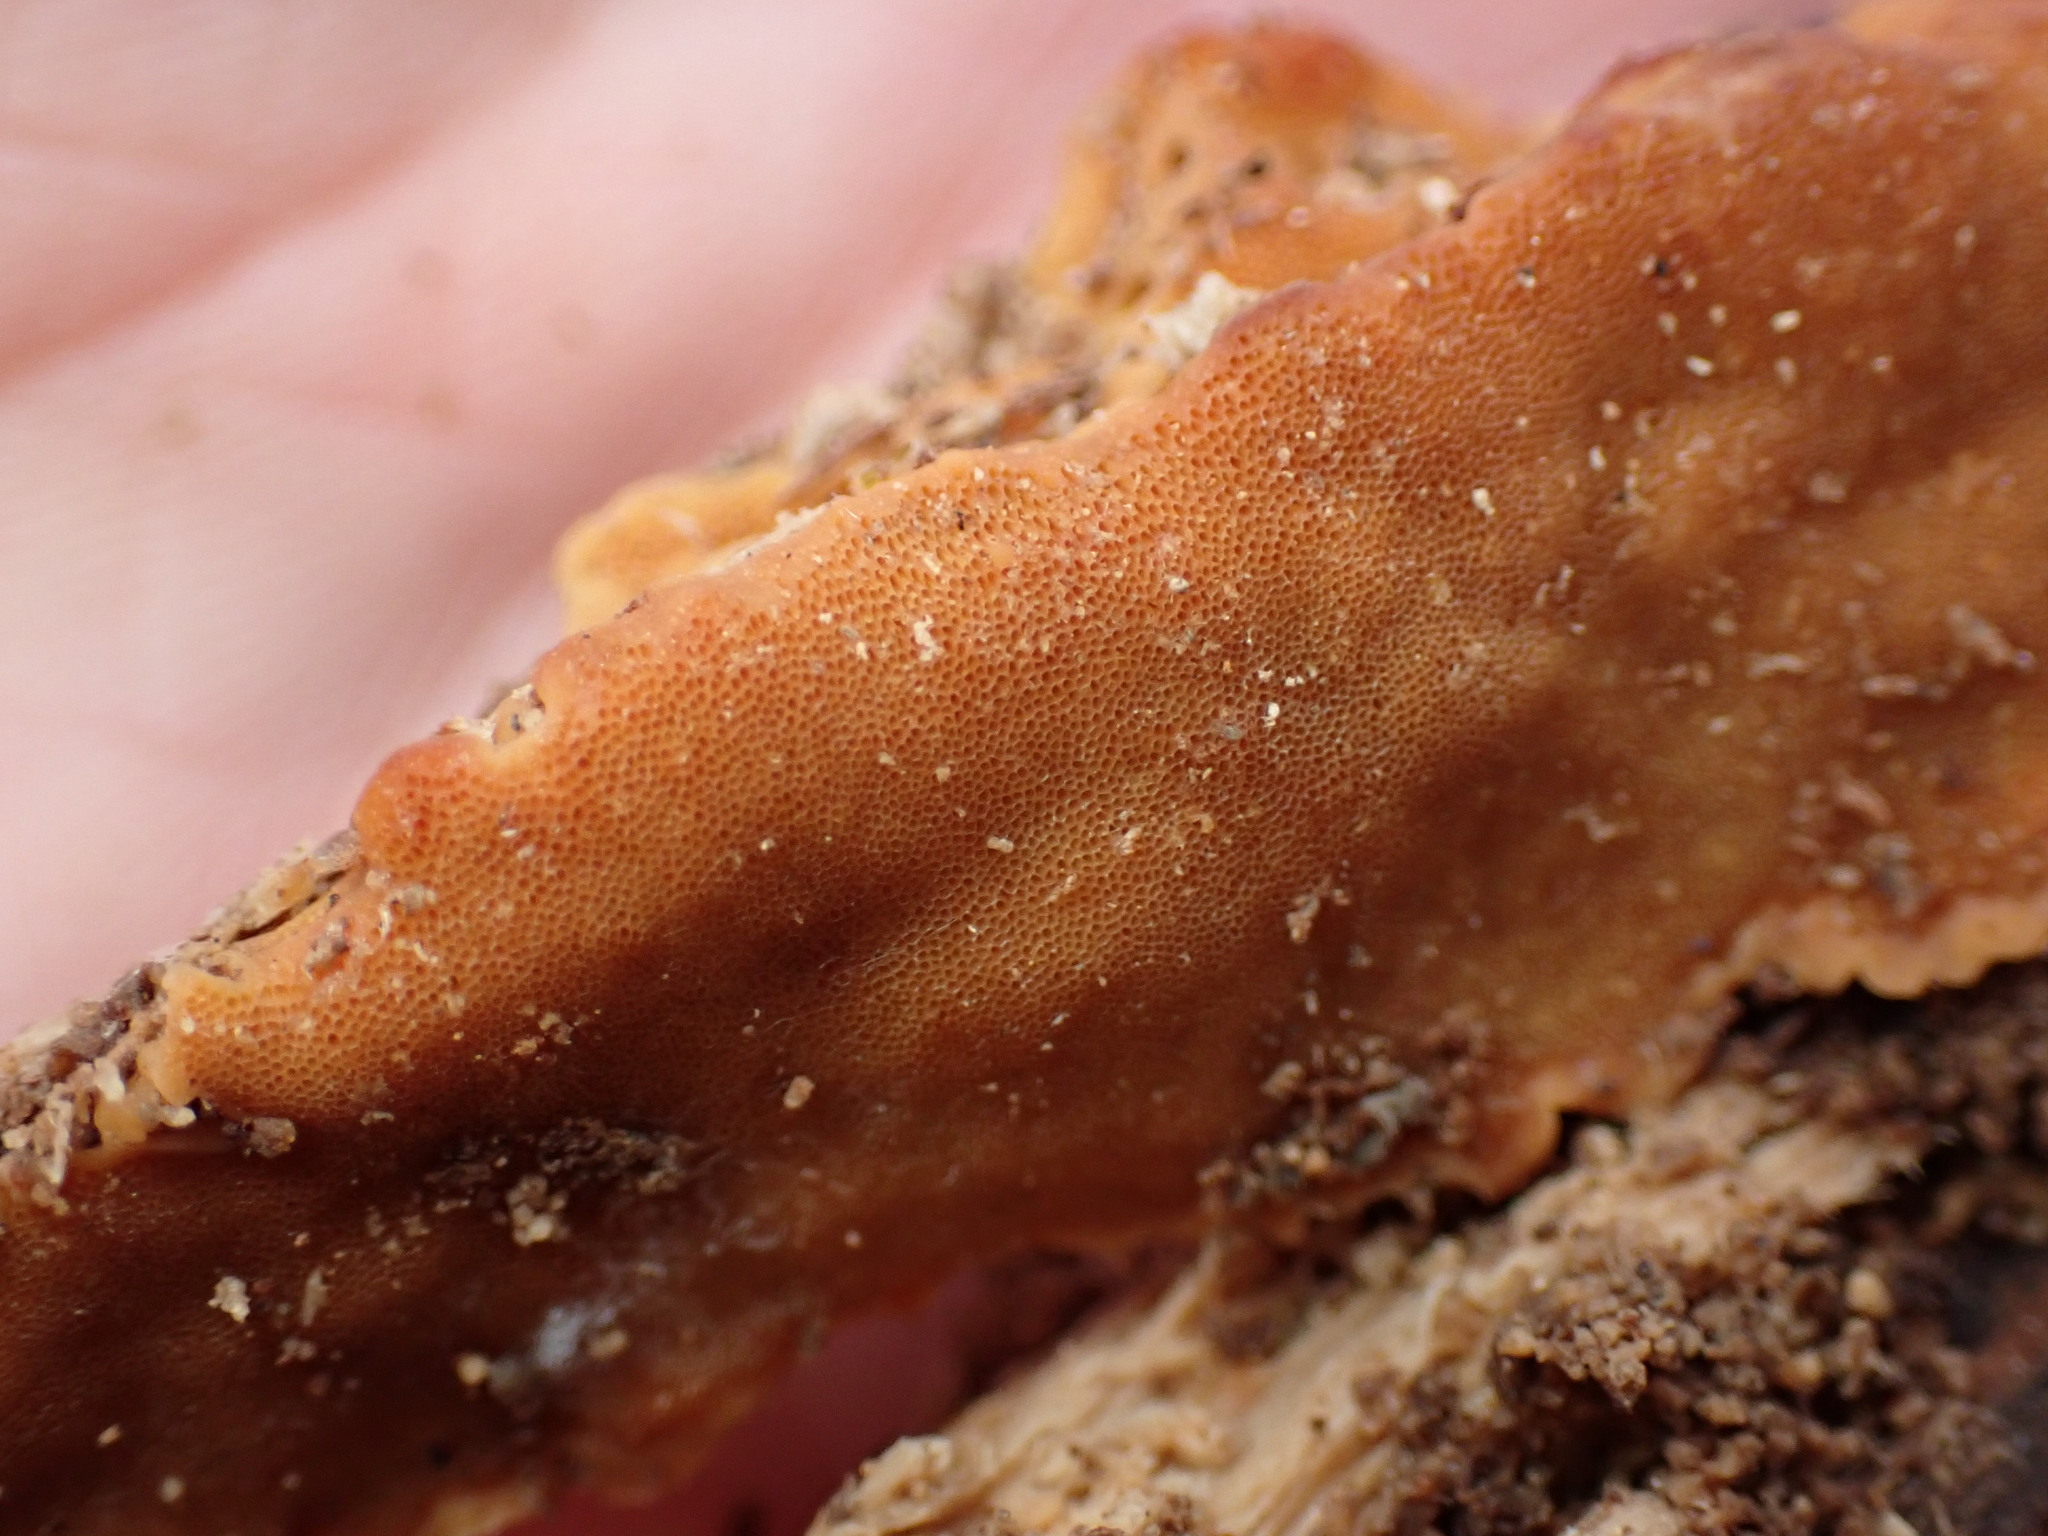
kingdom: Fungi
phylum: Basidiomycota
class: Agaricomycetes
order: Polyporales
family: Meripilaceae
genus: Rigidoporus
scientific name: Rigidoporus crocatus
